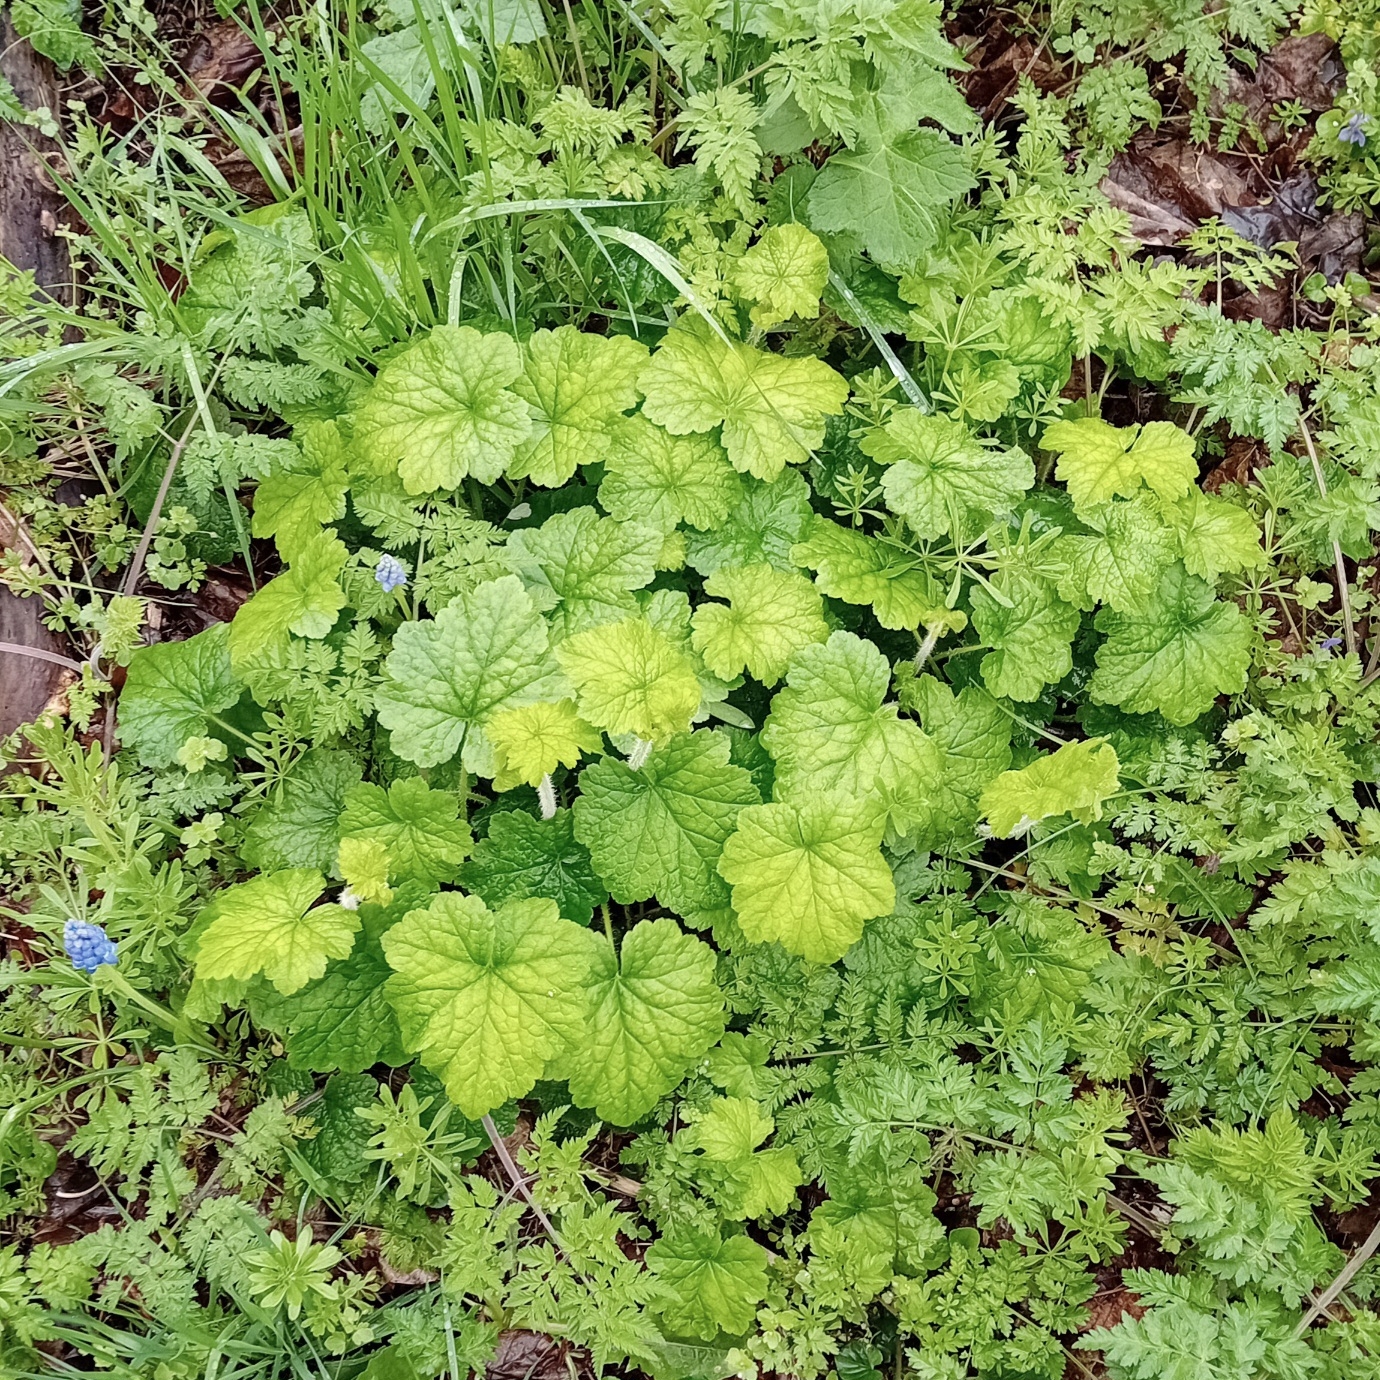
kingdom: Plantae
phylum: Tracheophyta
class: Magnoliopsida
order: Saxifragales
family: Saxifragaceae
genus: Tellima
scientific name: Tellima grandiflora
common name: Fringecups
